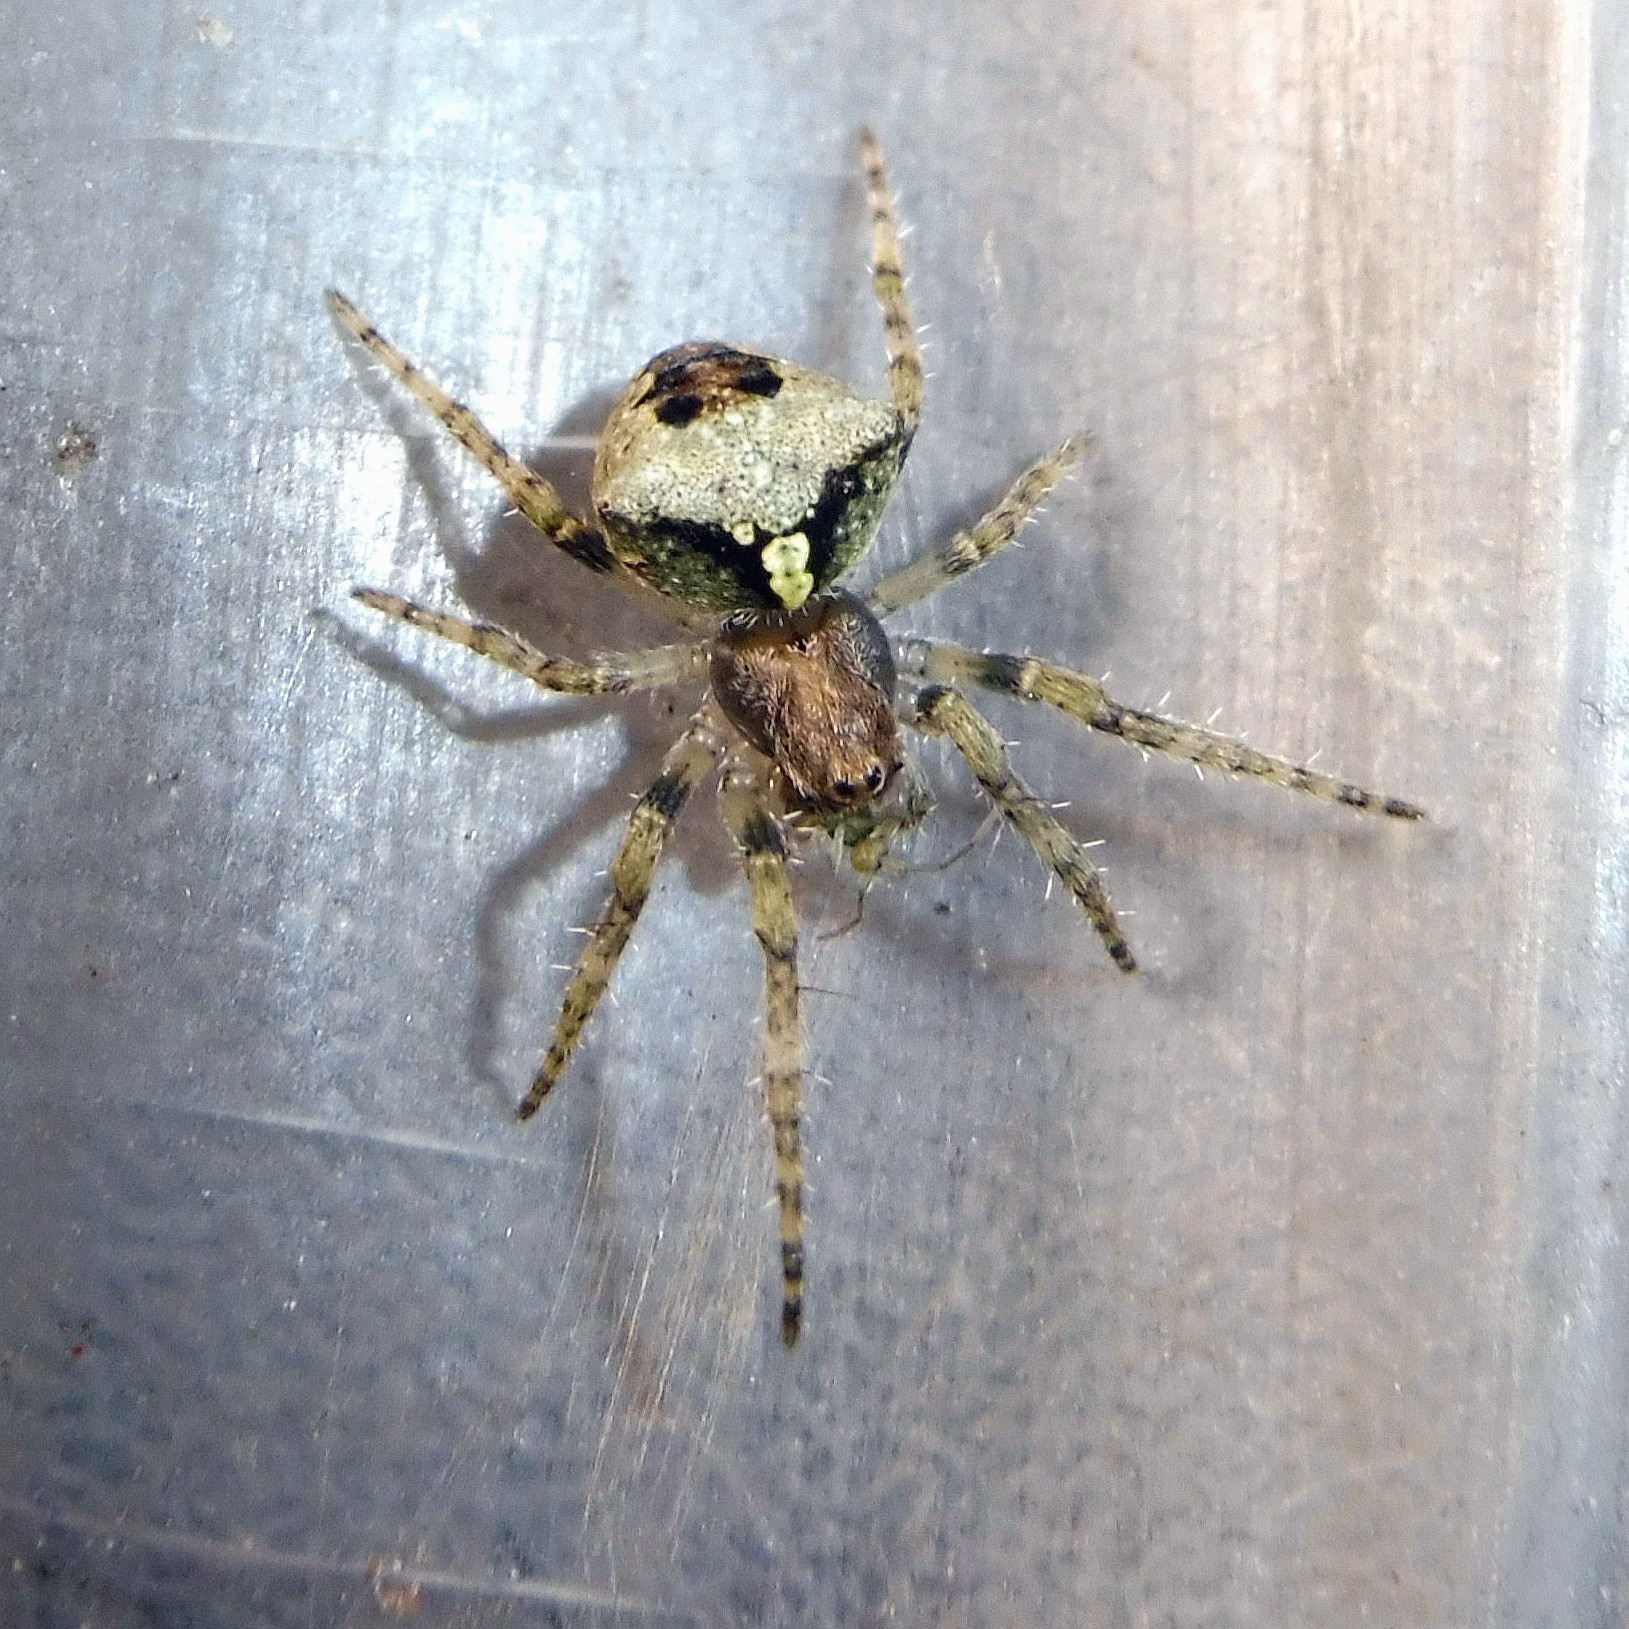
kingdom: Animalia
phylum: Arthropoda
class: Arachnida
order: Araneae
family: Araneidae
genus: Gibbaranea
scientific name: Gibbaranea gibbosa
